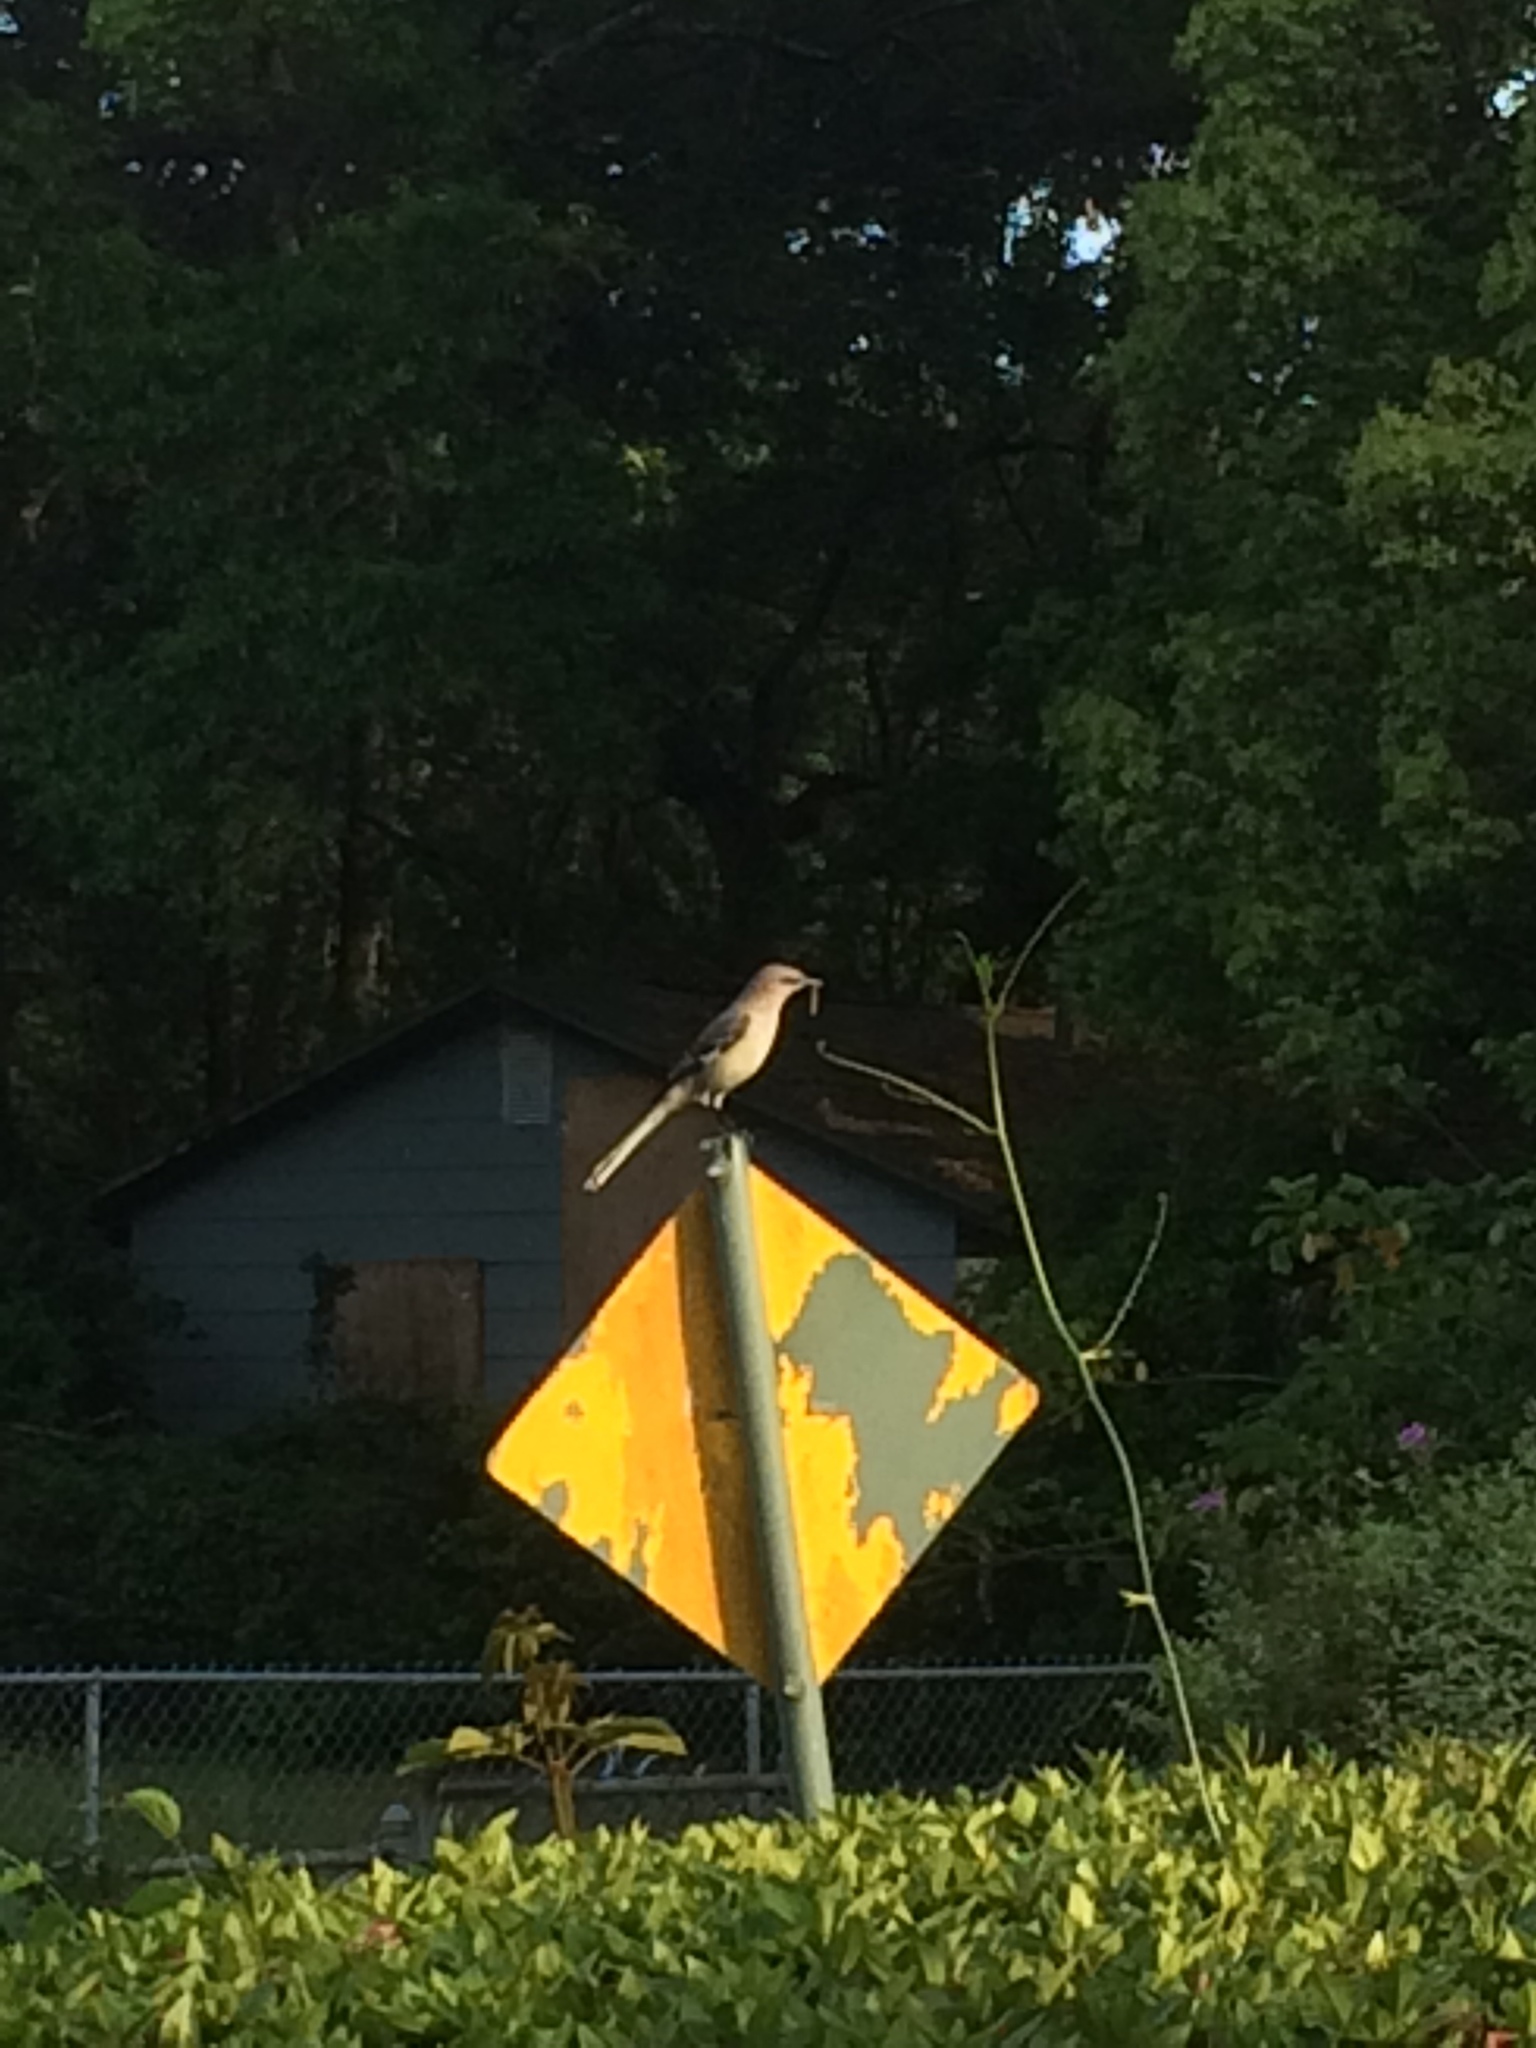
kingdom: Animalia
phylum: Chordata
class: Aves
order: Passeriformes
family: Mimidae
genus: Mimus
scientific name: Mimus polyglottos
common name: Northern mockingbird
